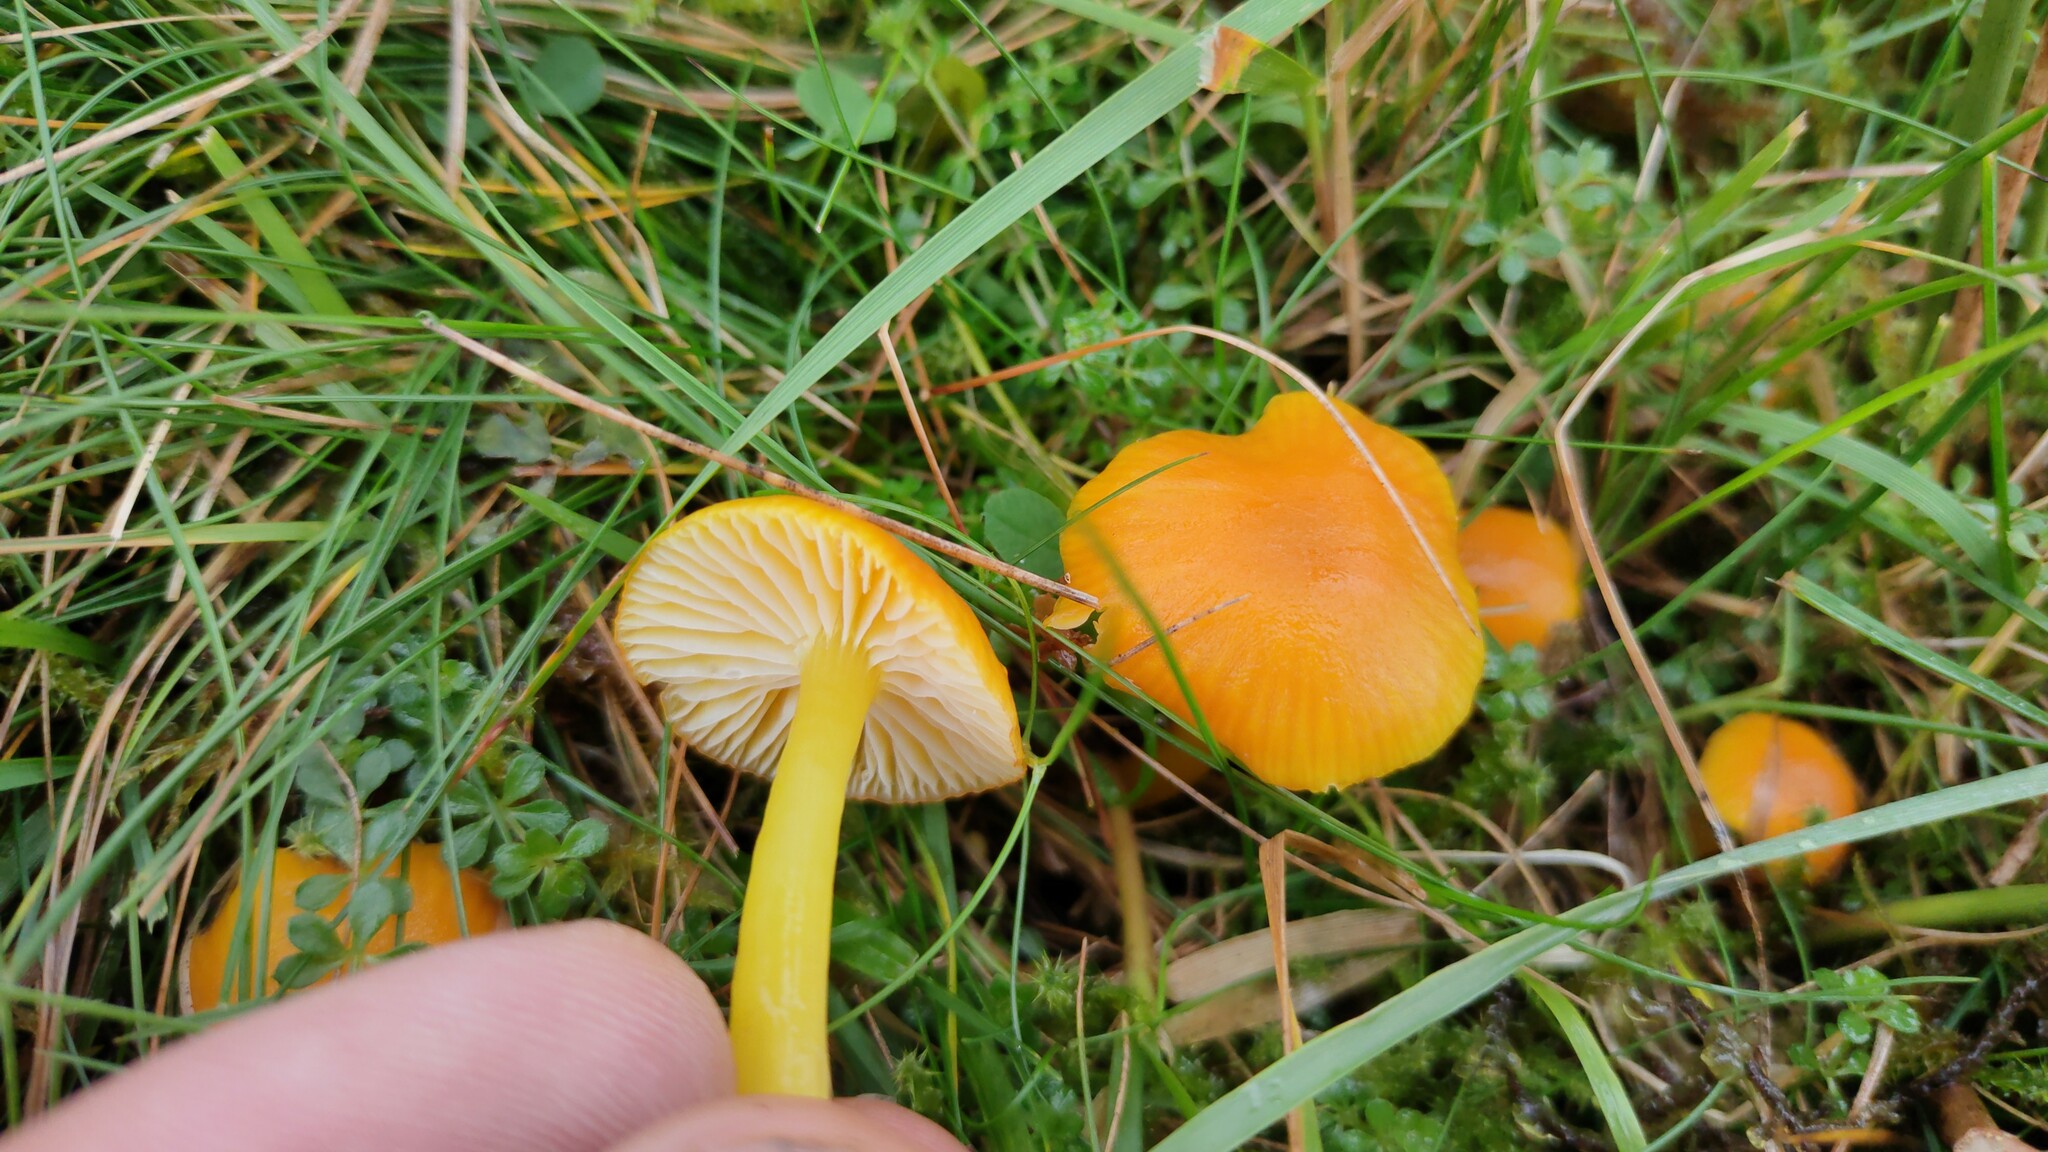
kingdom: Fungi
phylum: Basidiomycota
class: Agaricomycetes
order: Agaricales
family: Hygrophoraceae
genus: Hygrocybe
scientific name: Hygrocybe ceracea
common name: Butter waxcap
